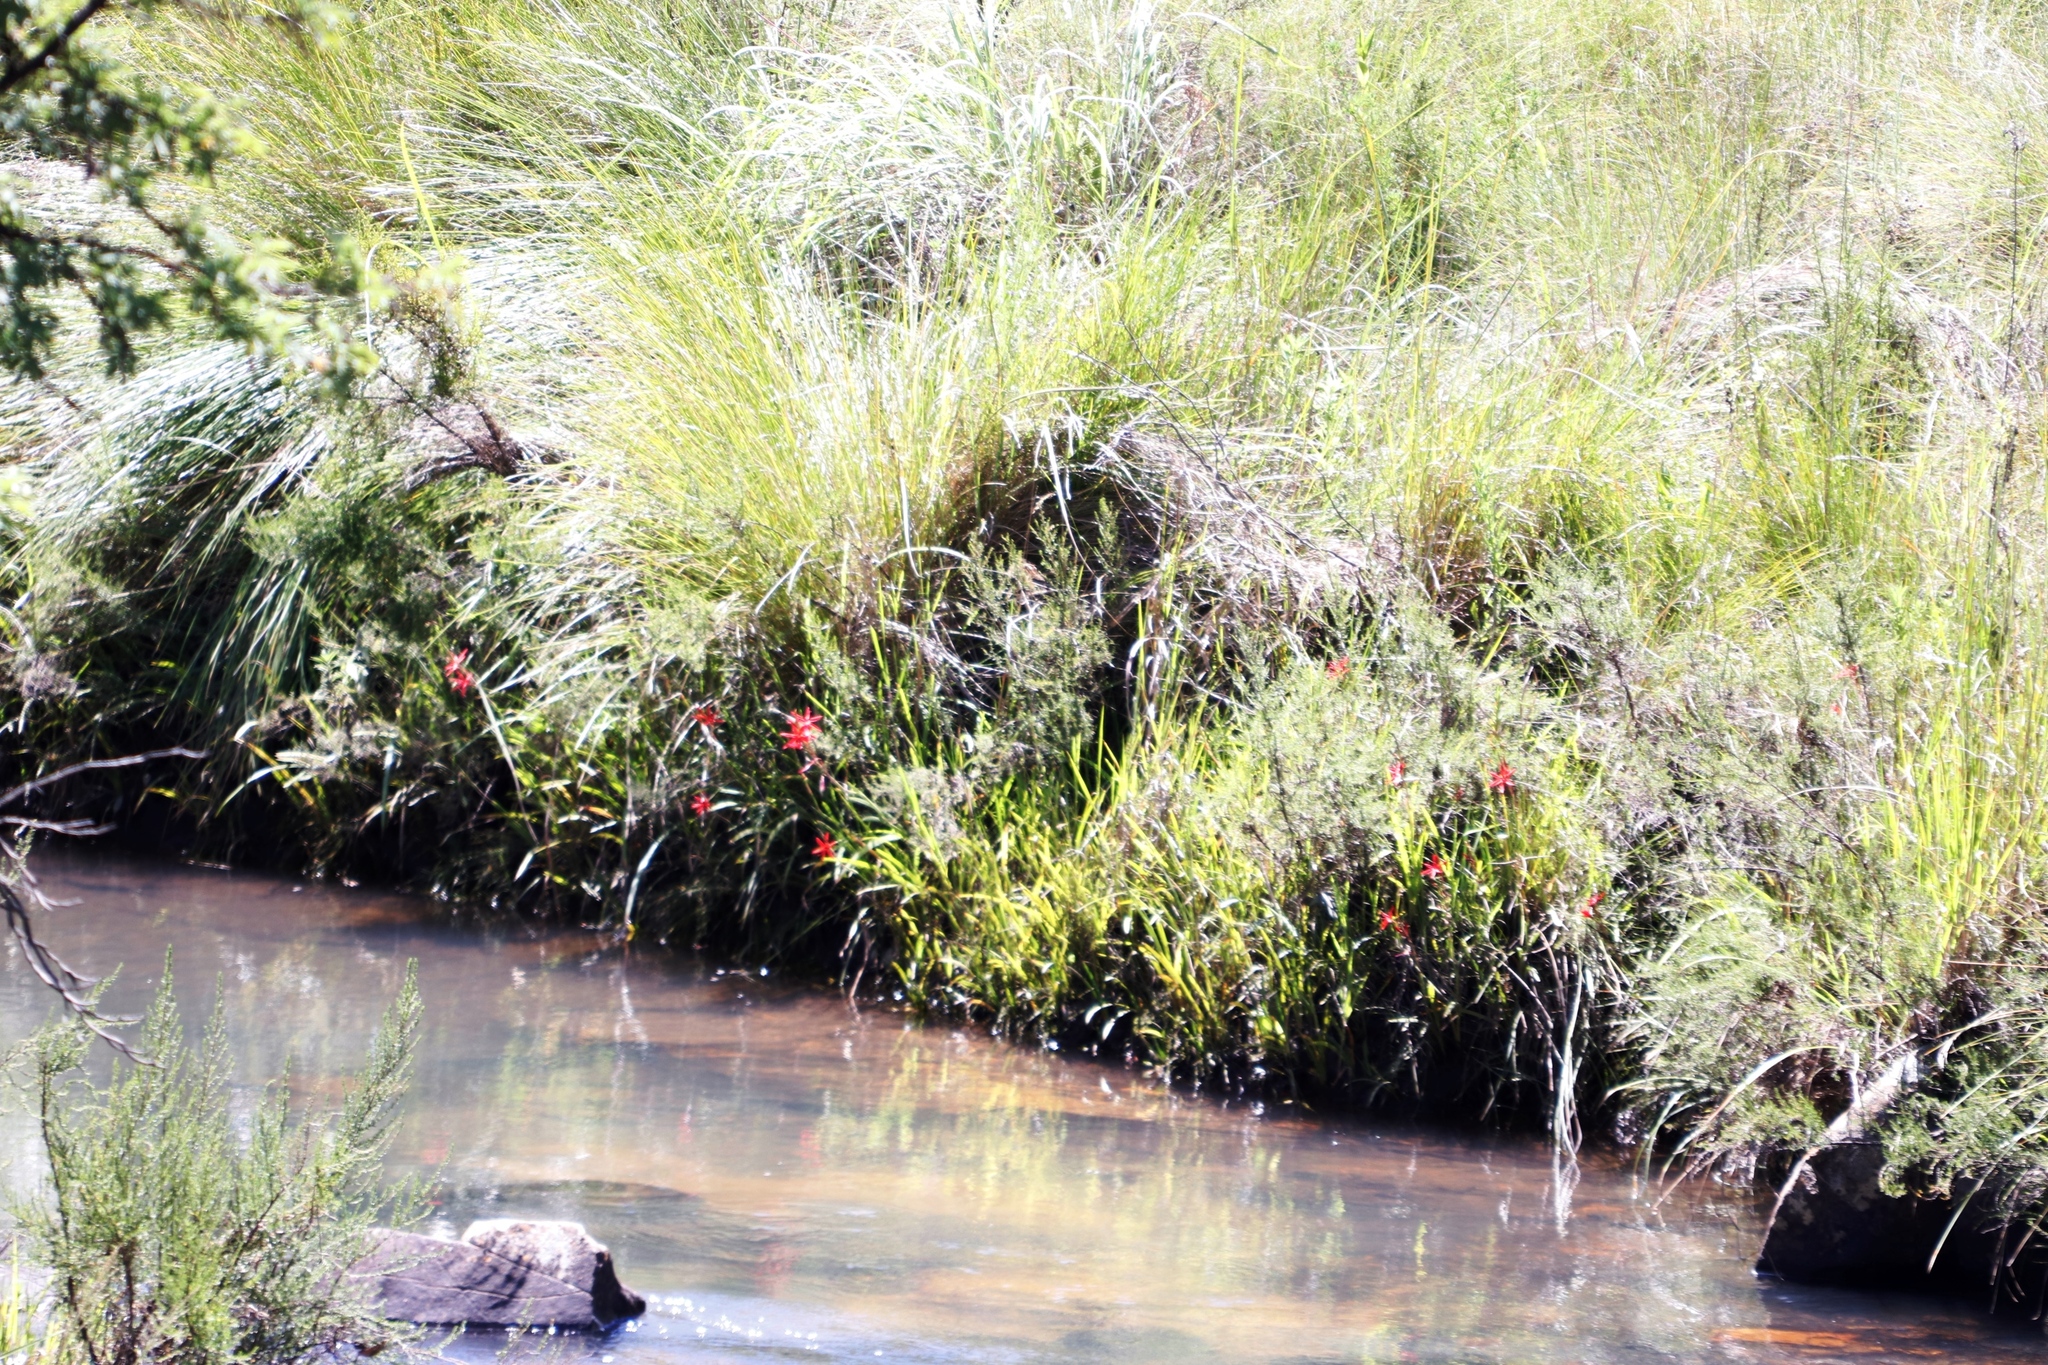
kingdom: Plantae
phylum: Tracheophyta
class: Liliopsida
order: Asparagales
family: Iridaceae
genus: Hesperantha
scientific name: Hesperantha coccinea
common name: River-lily
